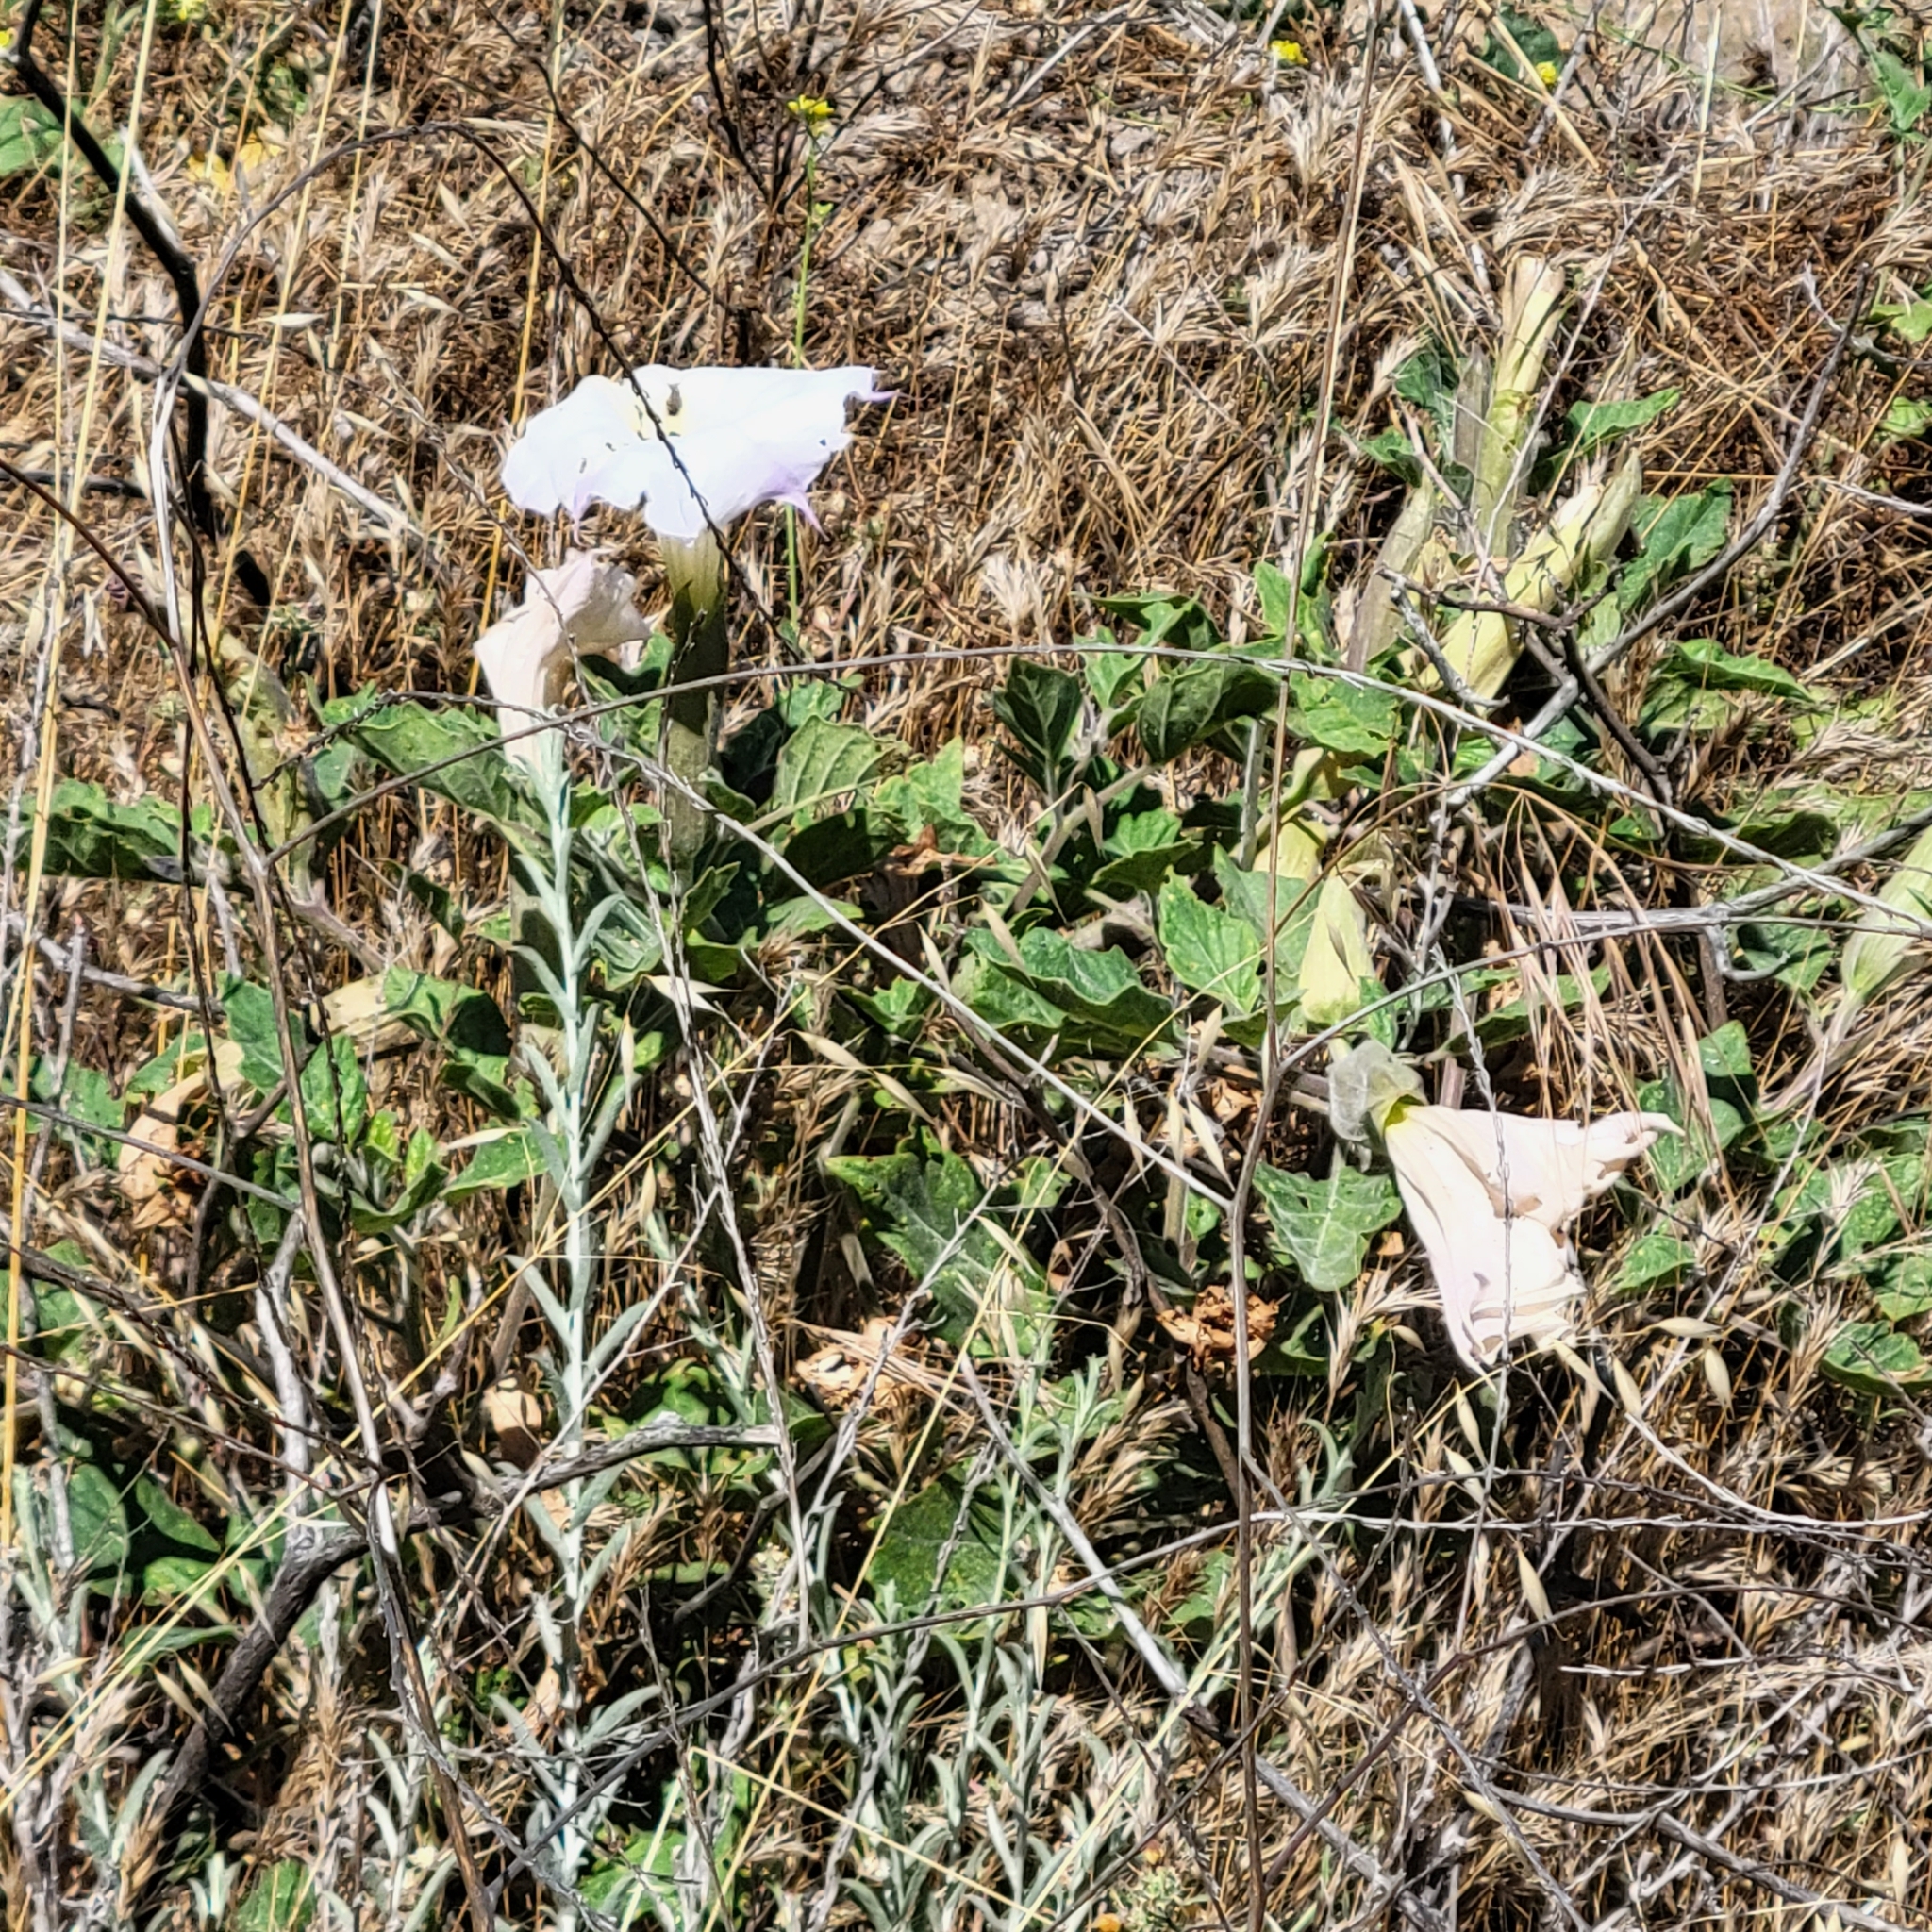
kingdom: Plantae
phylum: Tracheophyta
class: Magnoliopsida
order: Solanales
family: Solanaceae
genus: Datura
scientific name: Datura wrightii
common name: Sacred thorn-apple
